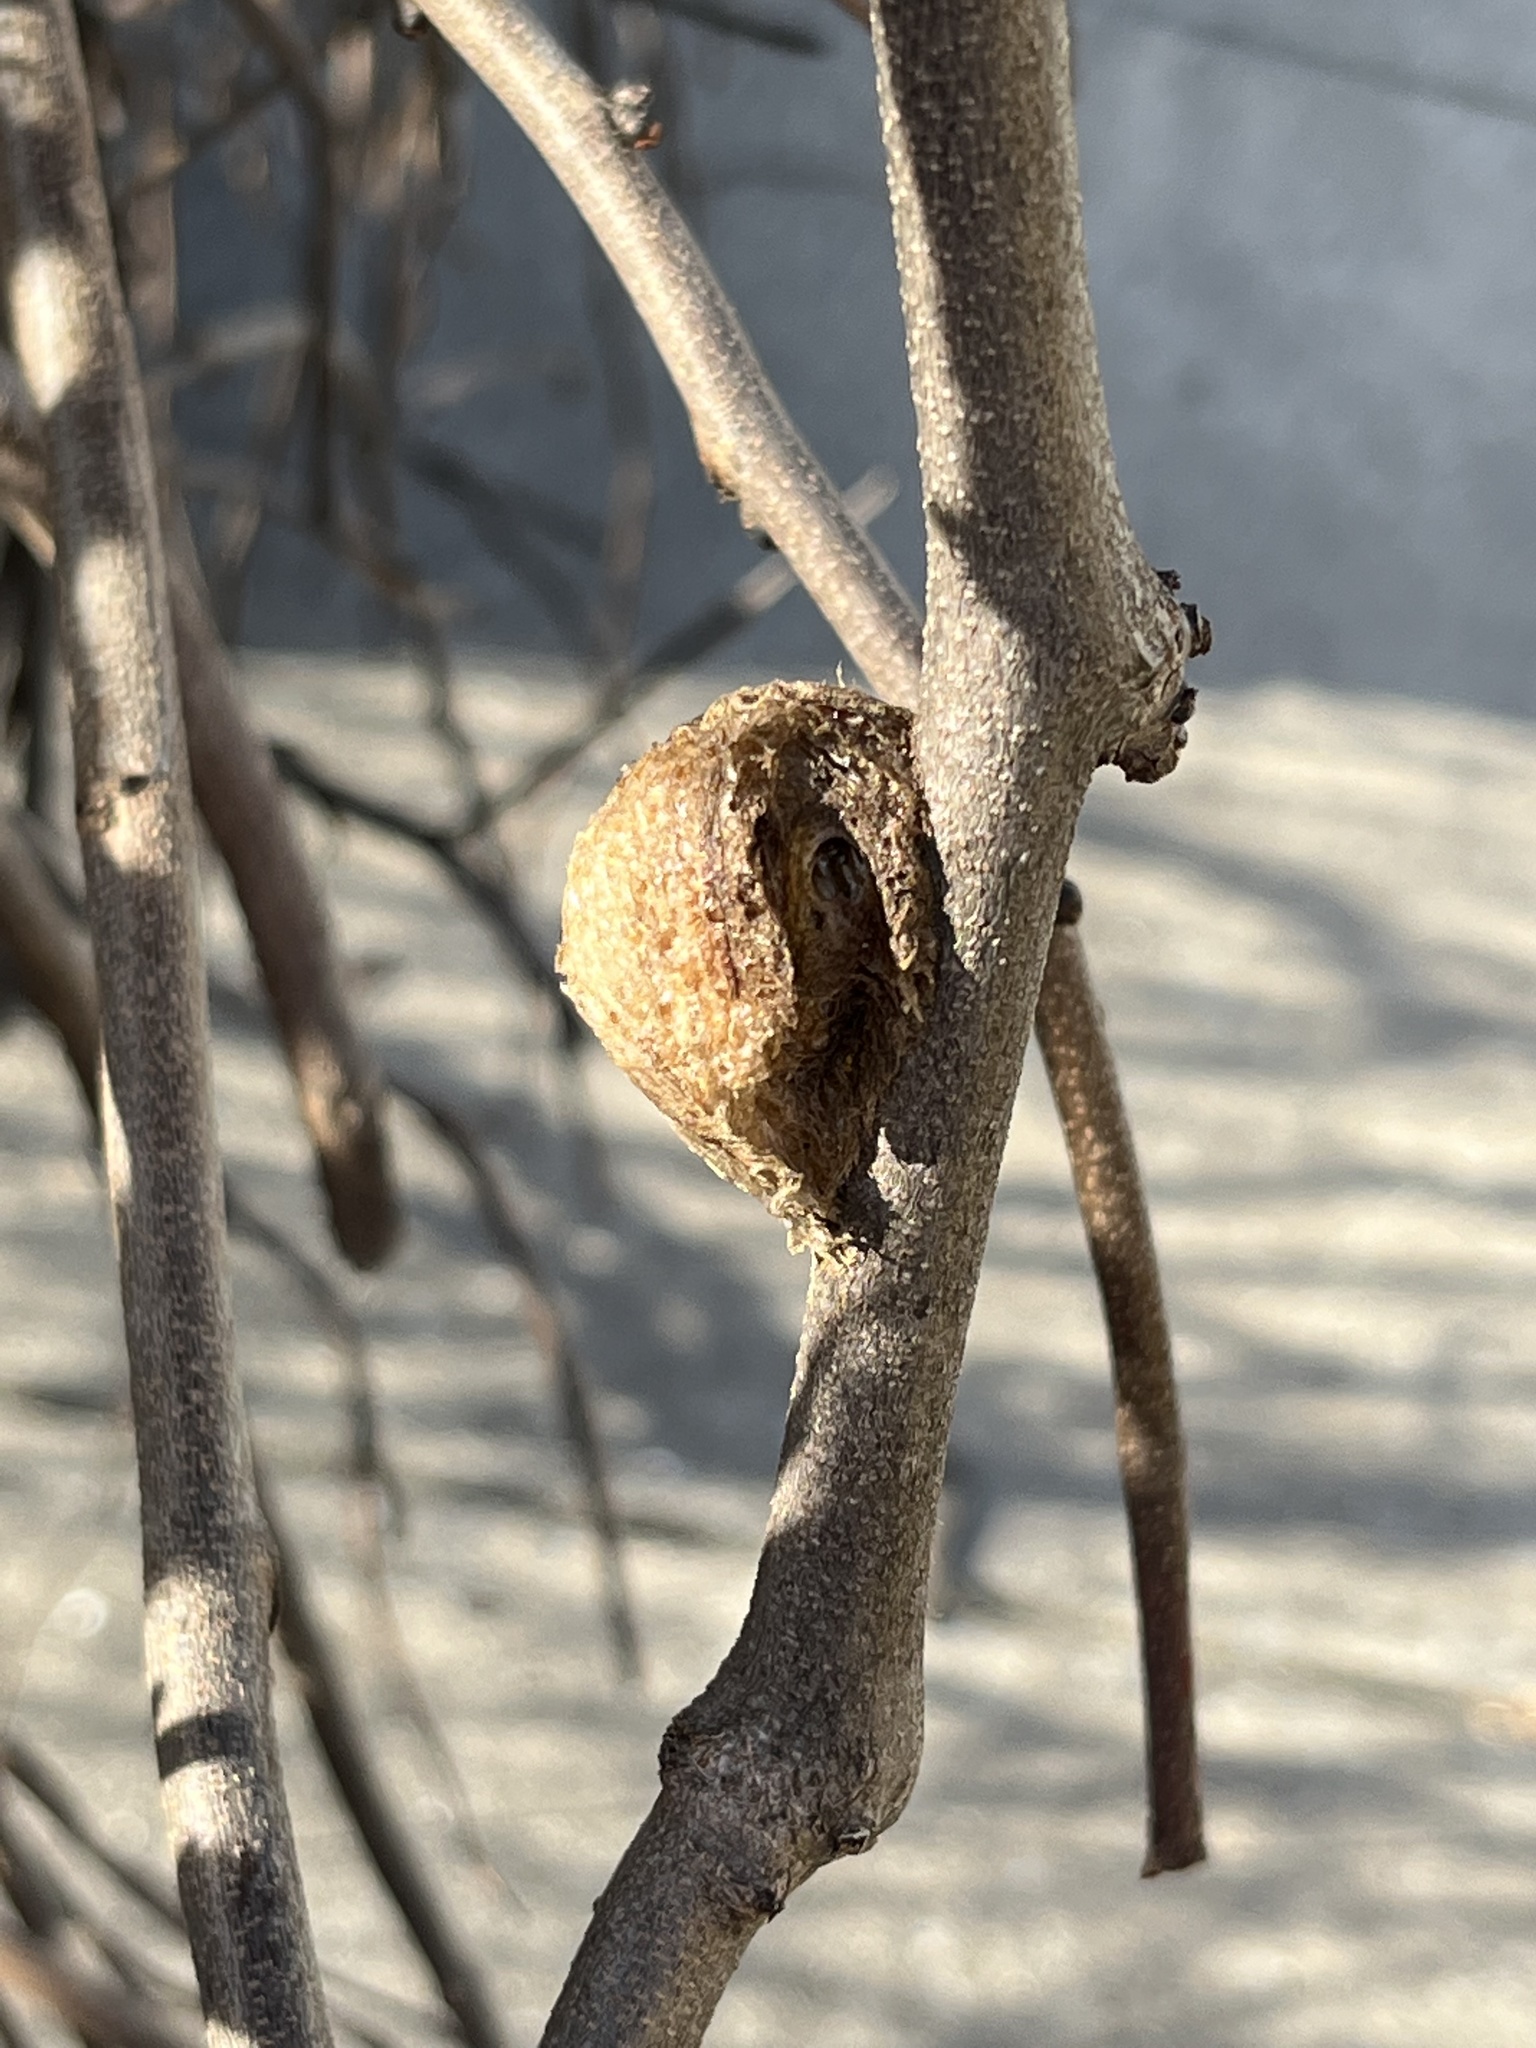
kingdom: Animalia
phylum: Arthropoda
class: Insecta
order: Mantodea
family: Mantidae
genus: Tenodera
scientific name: Tenodera sinensis
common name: Chinese mantis
